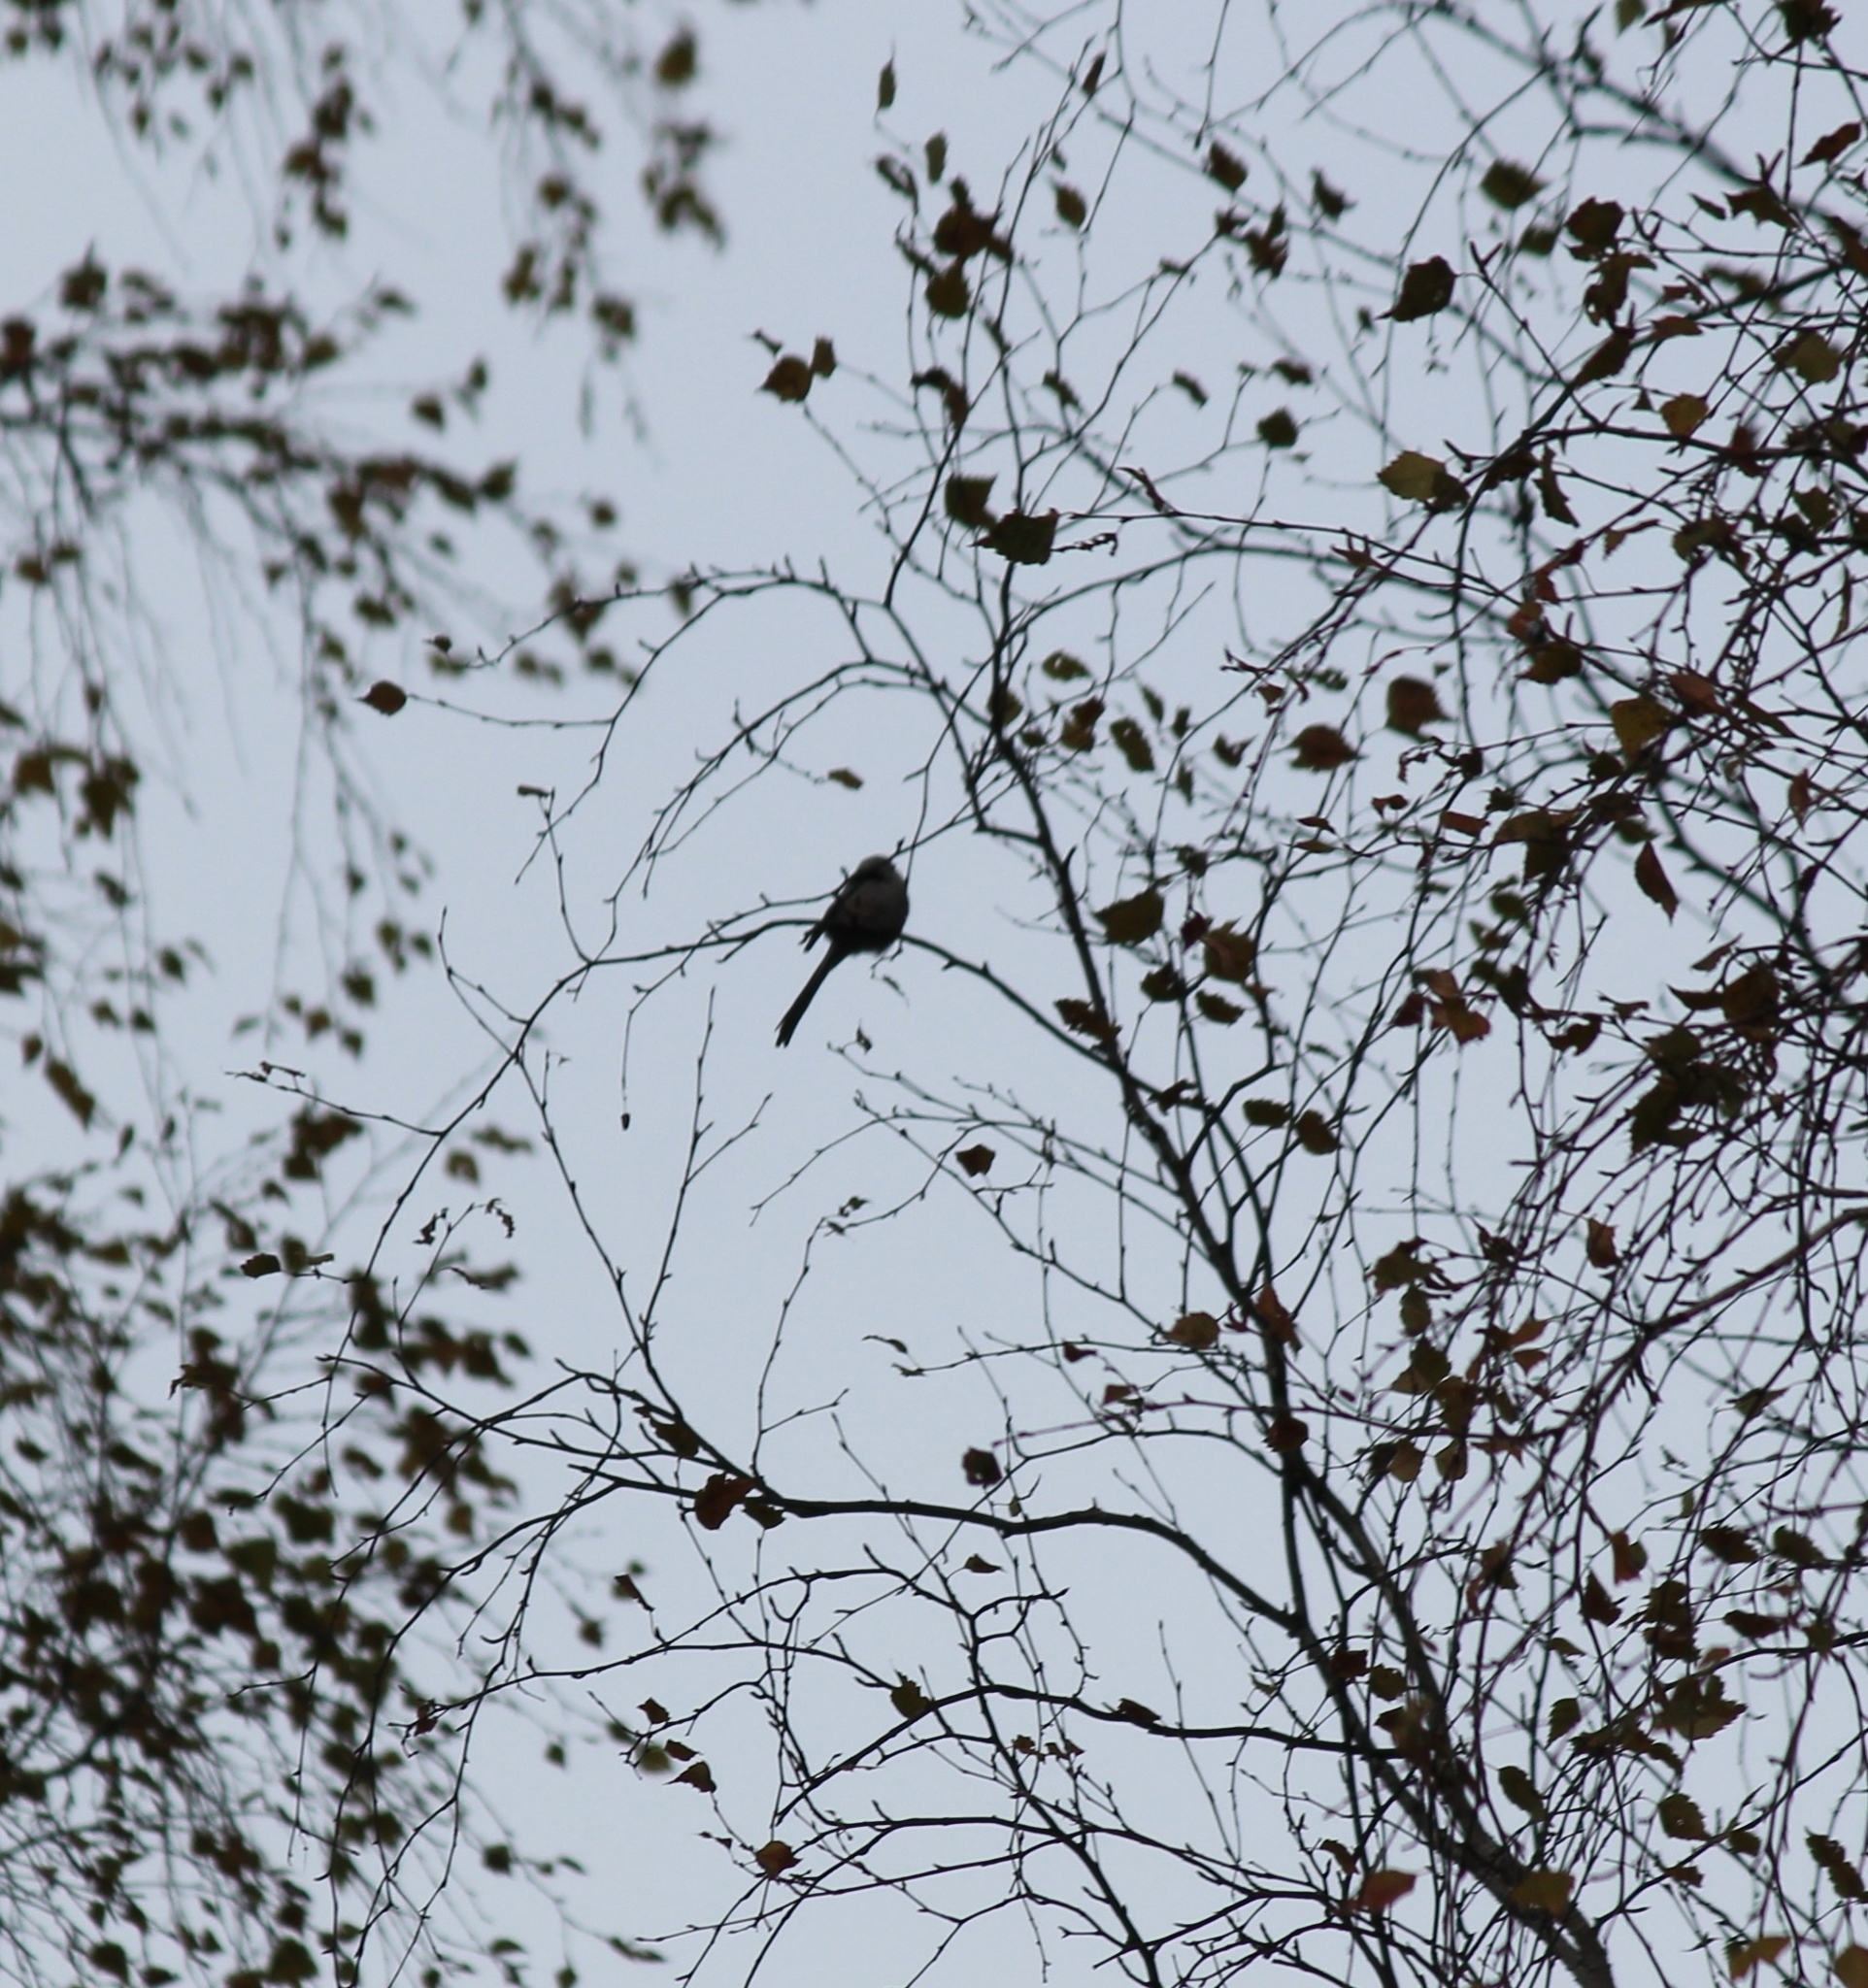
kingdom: Animalia
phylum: Chordata
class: Aves
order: Passeriformes
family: Aegithalidae
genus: Aegithalos
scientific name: Aegithalos caudatus
